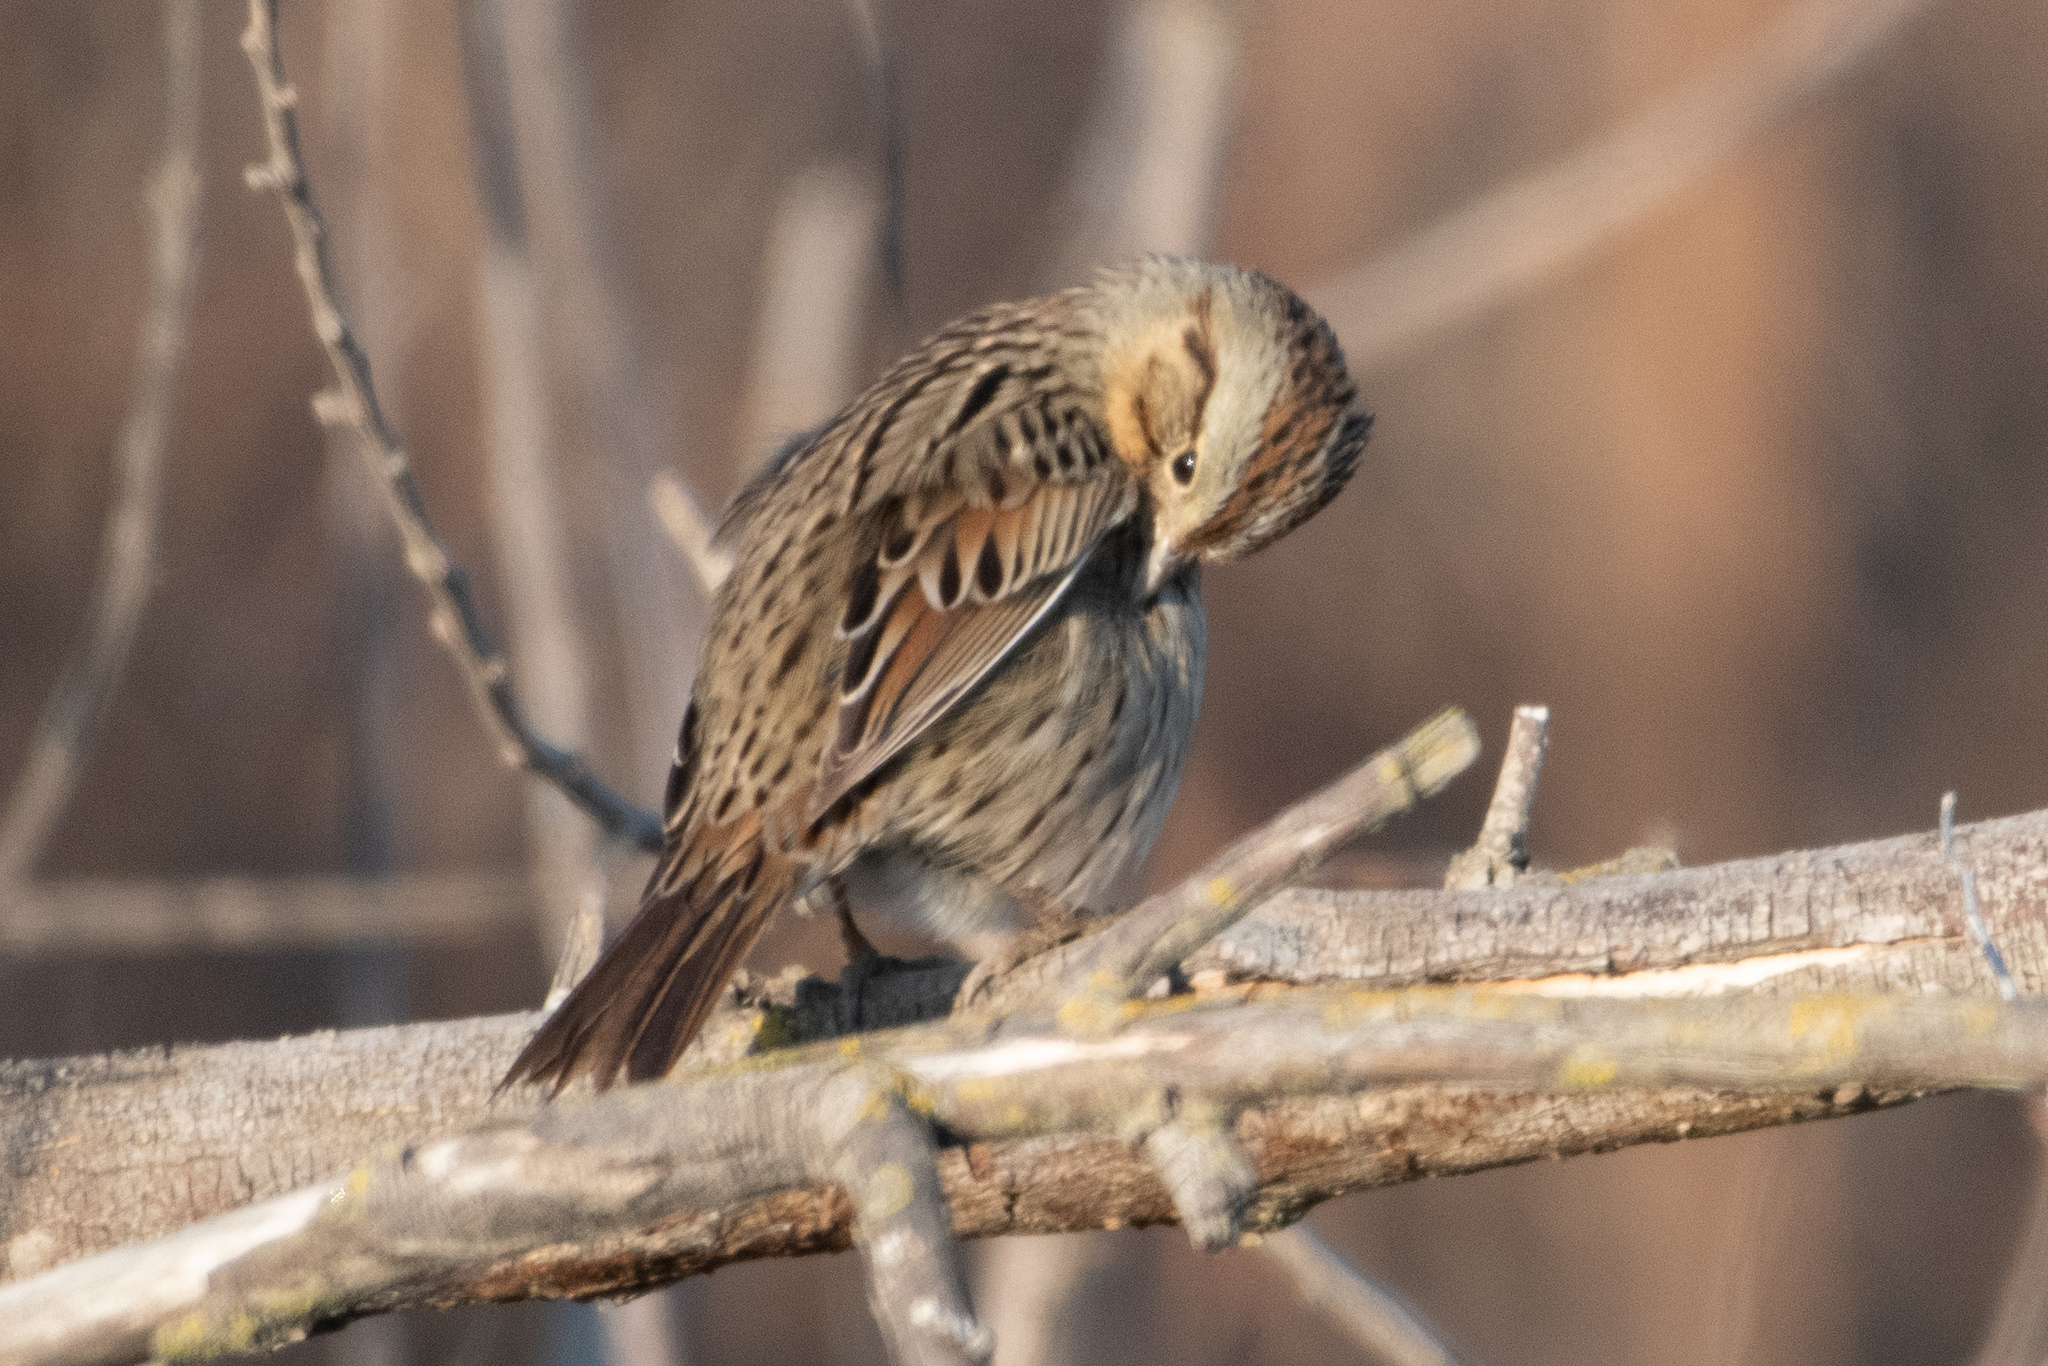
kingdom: Animalia
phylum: Chordata
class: Aves
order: Passeriformes
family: Passerellidae
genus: Melospiza
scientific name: Melospiza lincolnii
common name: Lincoln's sparrow
